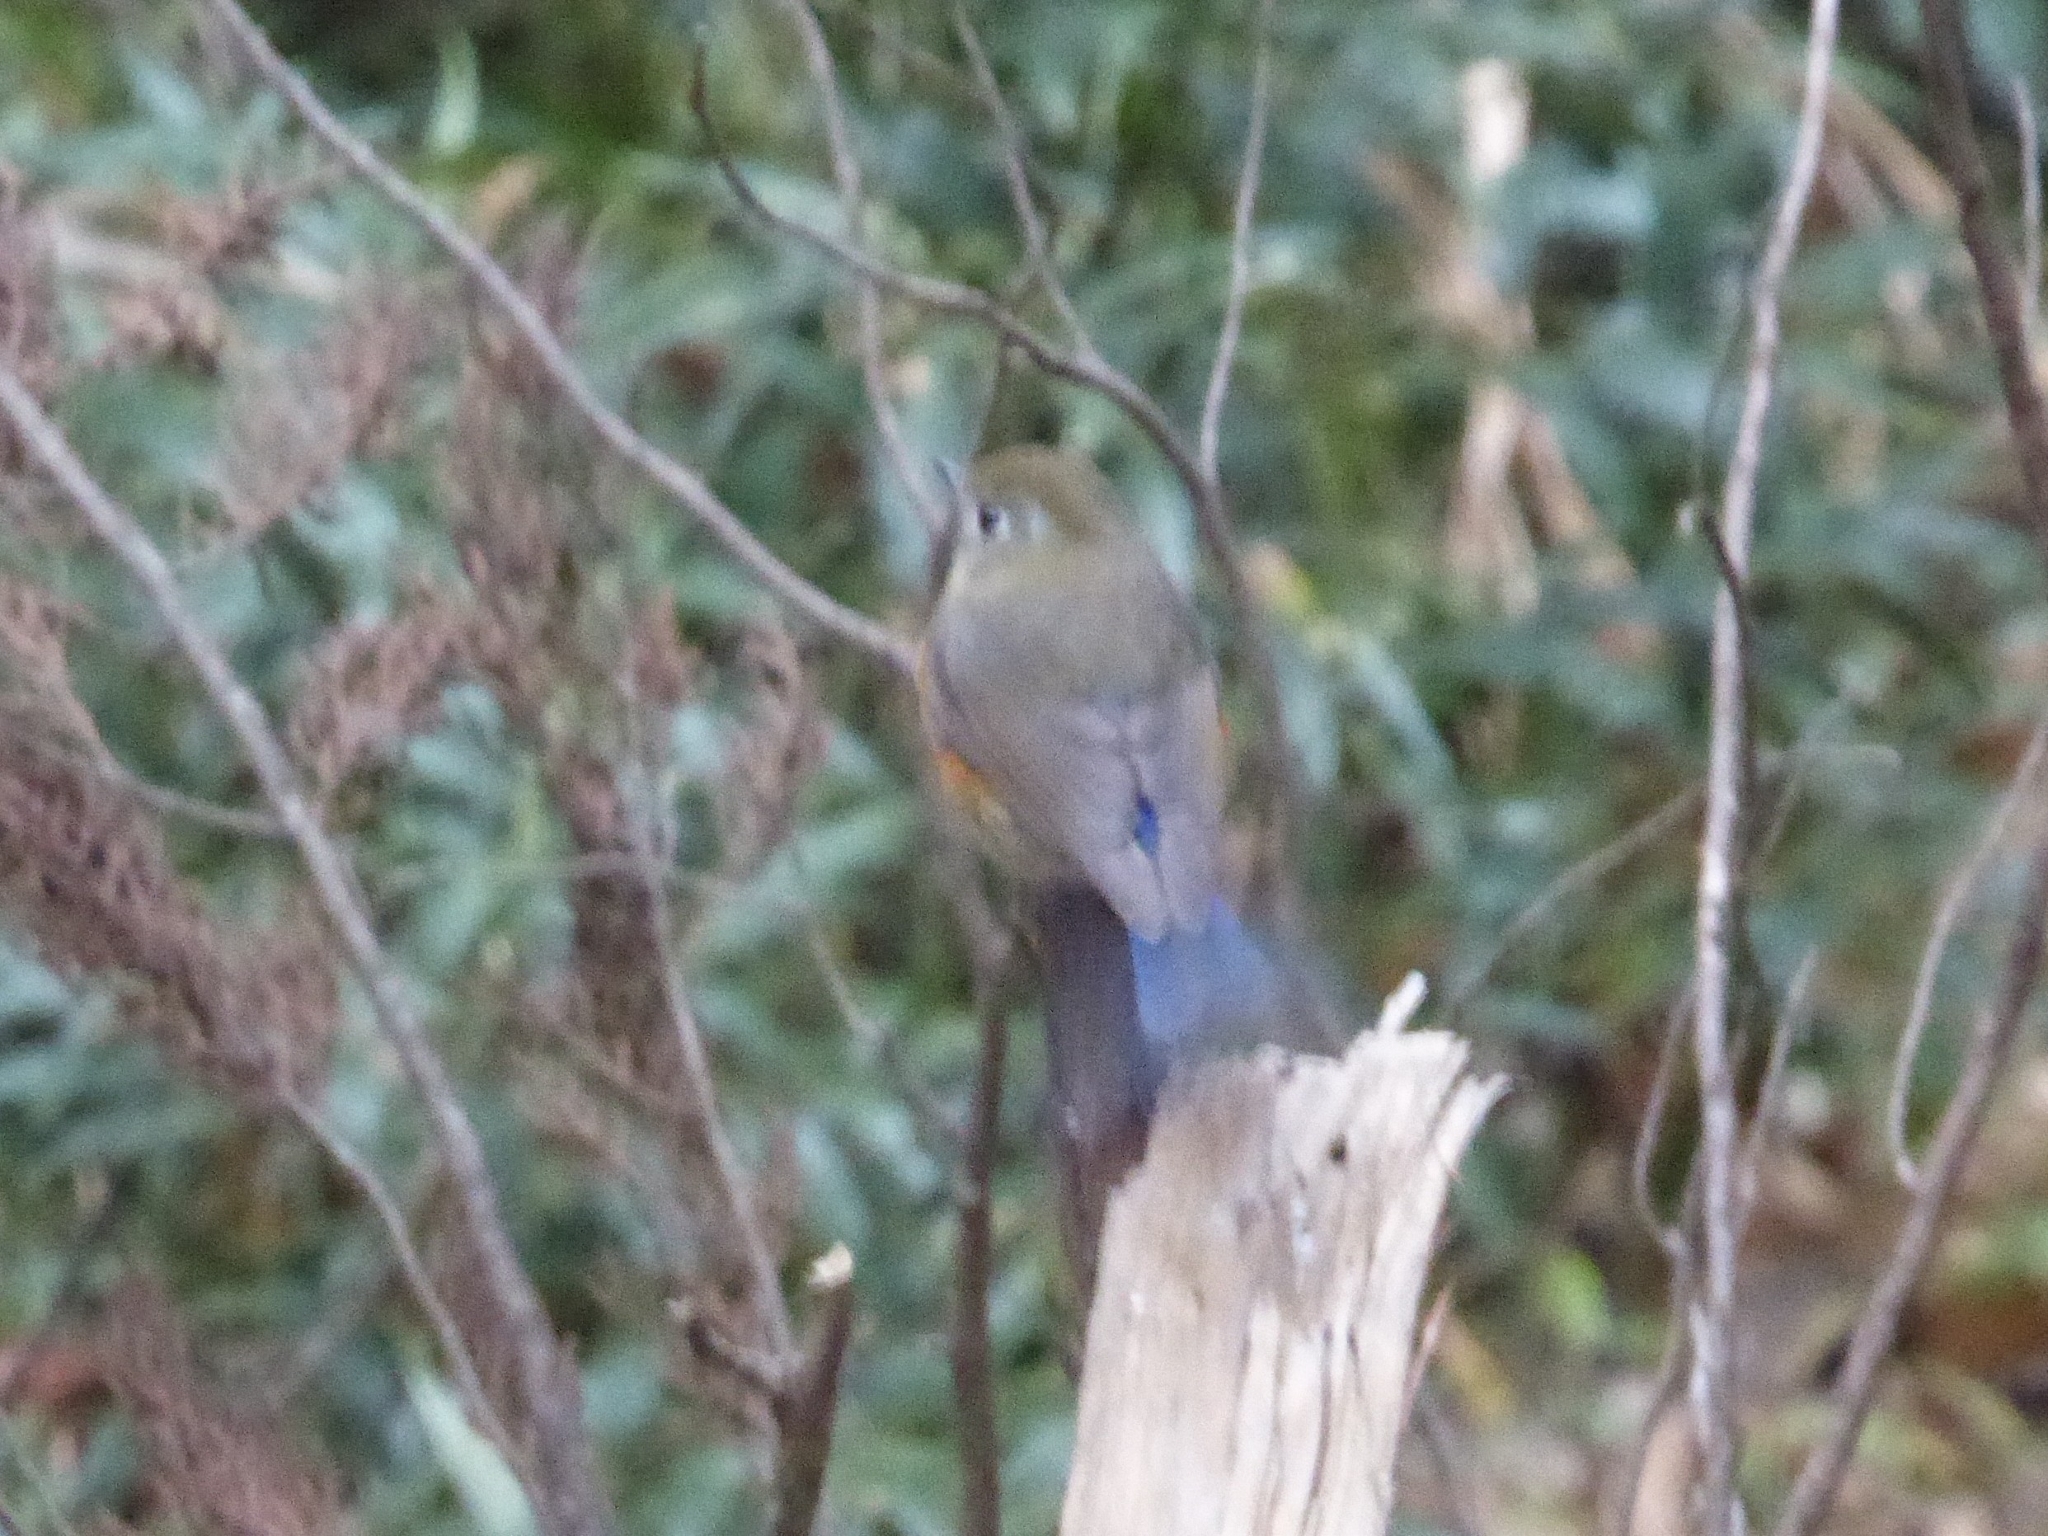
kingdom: Animalia
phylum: Chordata
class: Aves
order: Passeriformes
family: Muscicapidae
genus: Tarsiger
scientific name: Tarsiger rufilatus
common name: Himalayan bluetail
